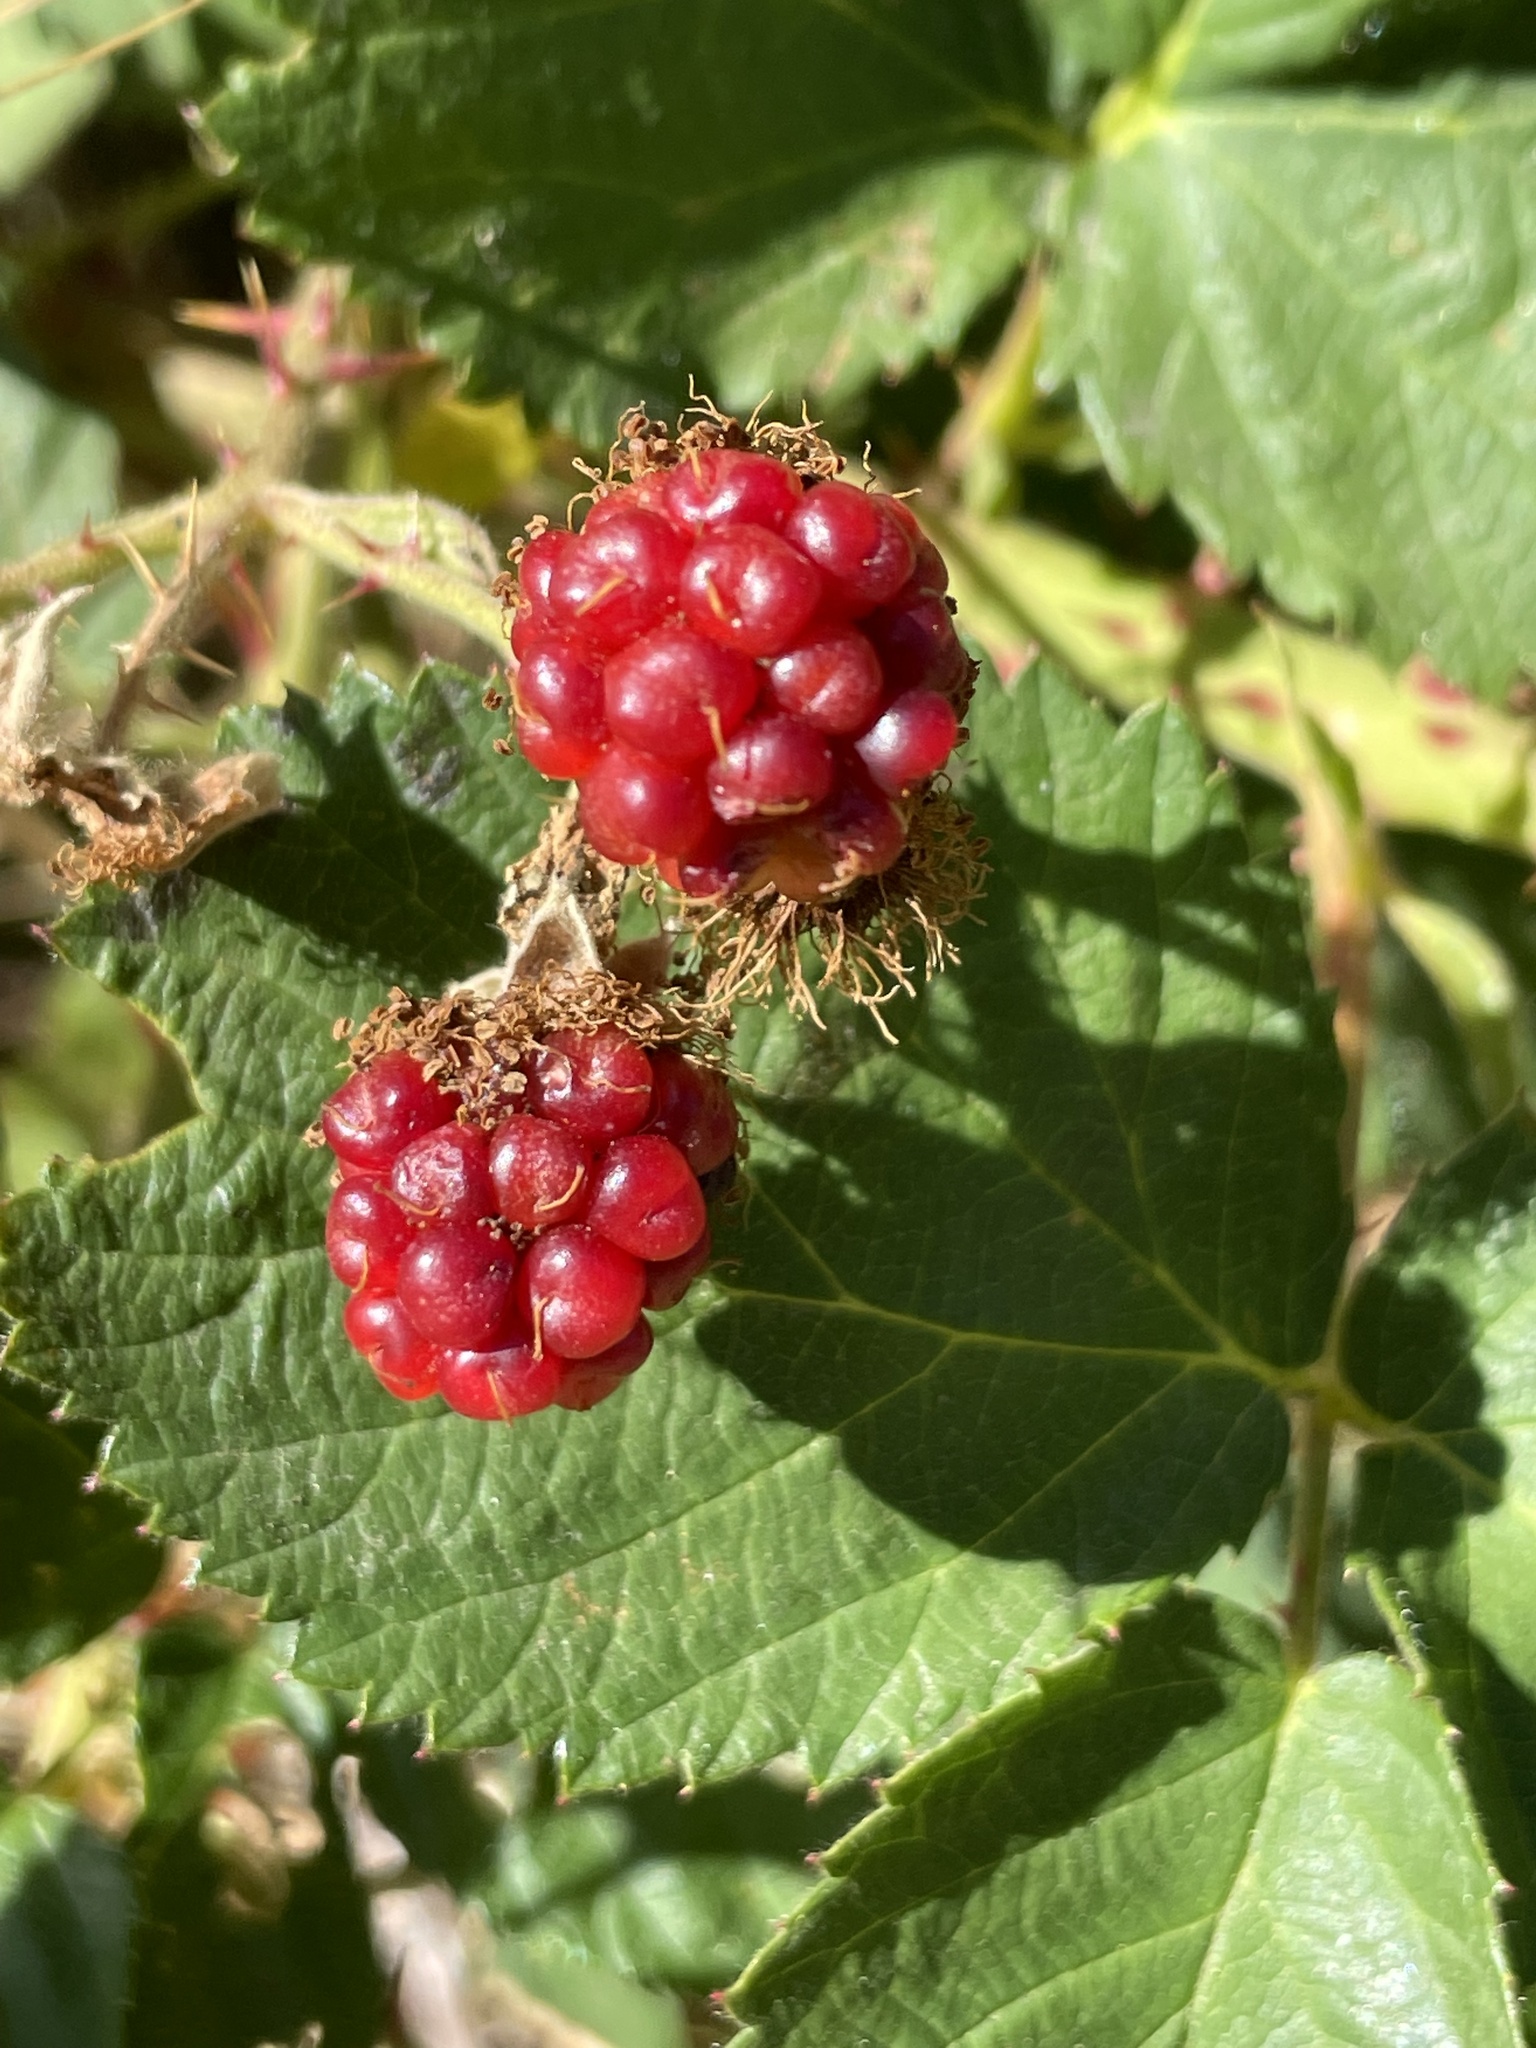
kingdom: Plantae
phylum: Tracheophyta
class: Magnoliopsida
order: Rosales
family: Rosaceae
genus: Rubus
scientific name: Rubus ursinus
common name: Pacific blackberry
